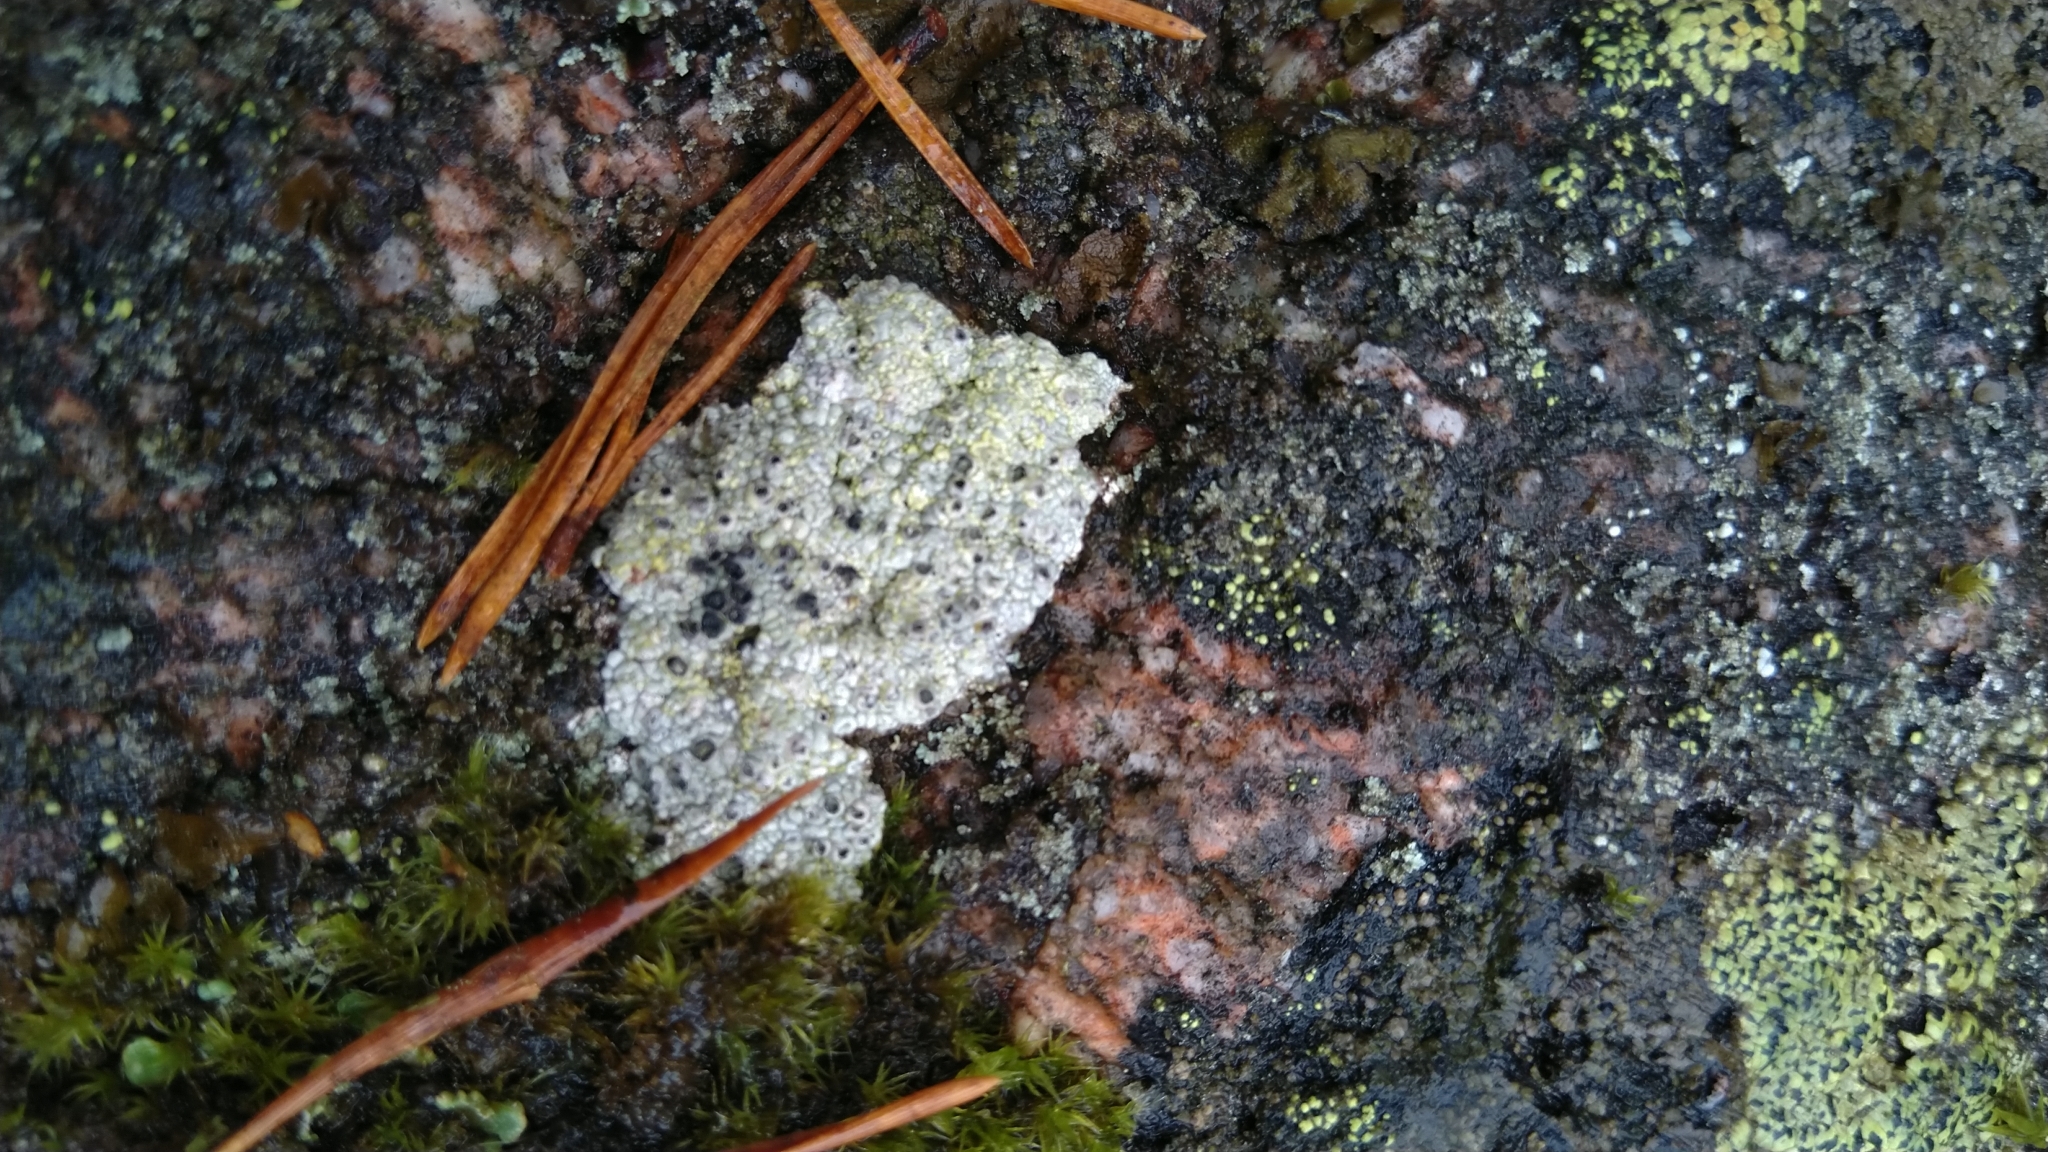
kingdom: Fungi
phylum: Ascomycota
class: Lecanoromycetes
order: Ostropales
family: Graphidaceae
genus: Diploschistes
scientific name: Diploschistes scruposus
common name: Crater lichen
